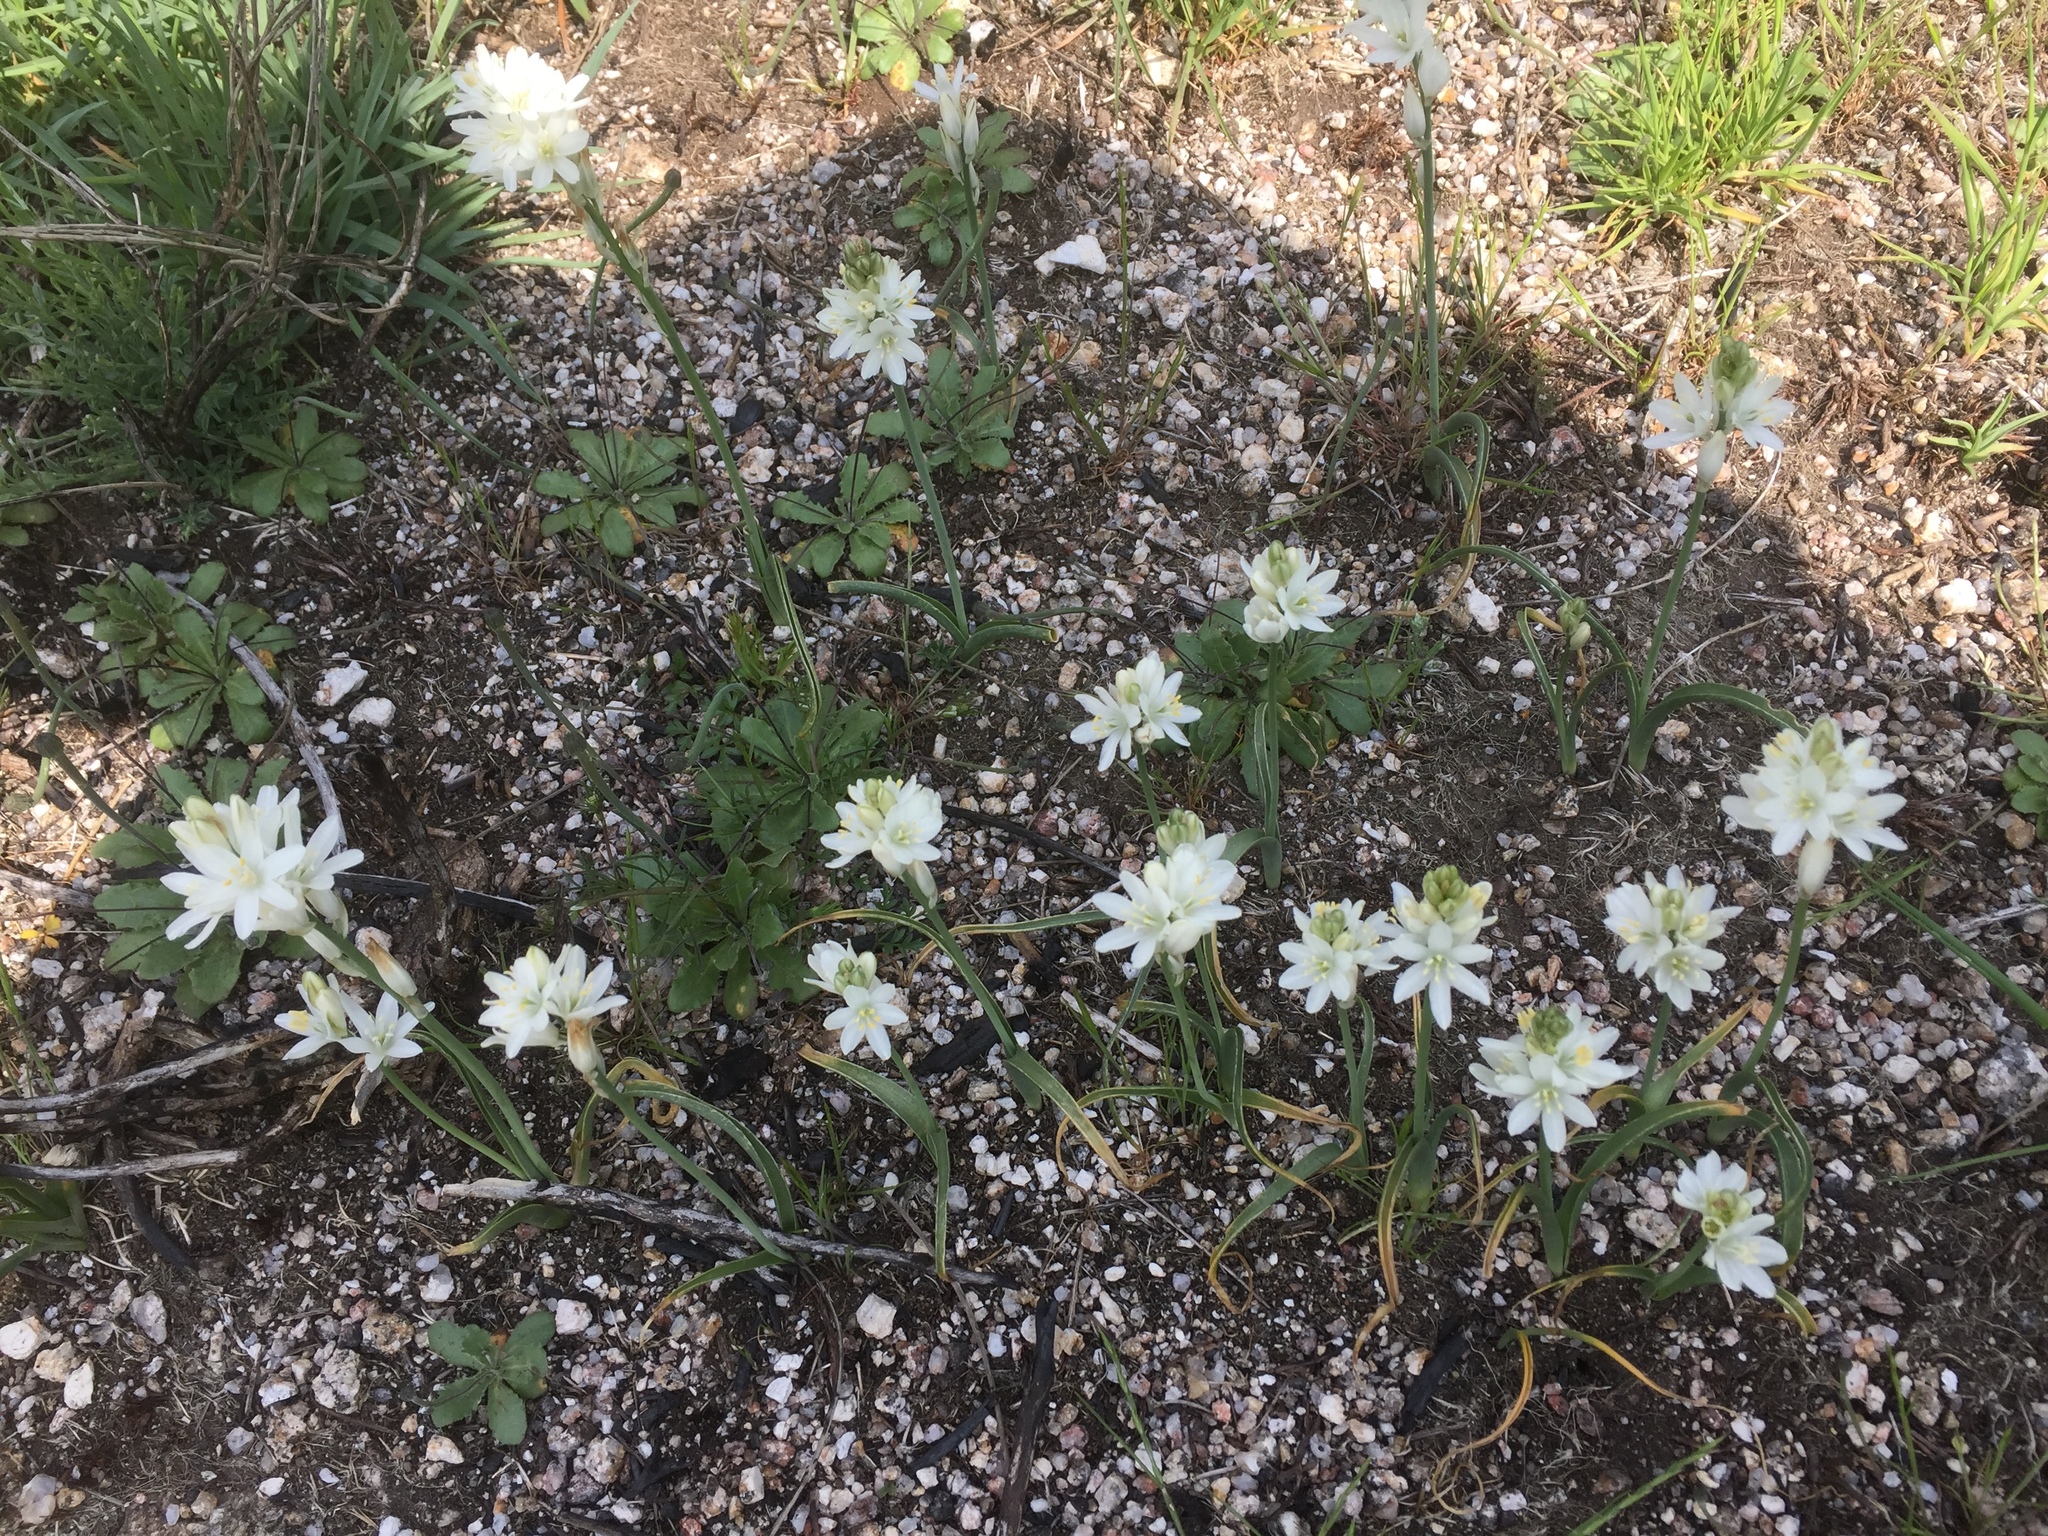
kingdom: Plantae
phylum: Tracheophyta
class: Liliopsida
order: Asparagales
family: Asparagaceae
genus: Ornithogalum
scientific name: Ornithogalum concinnum
